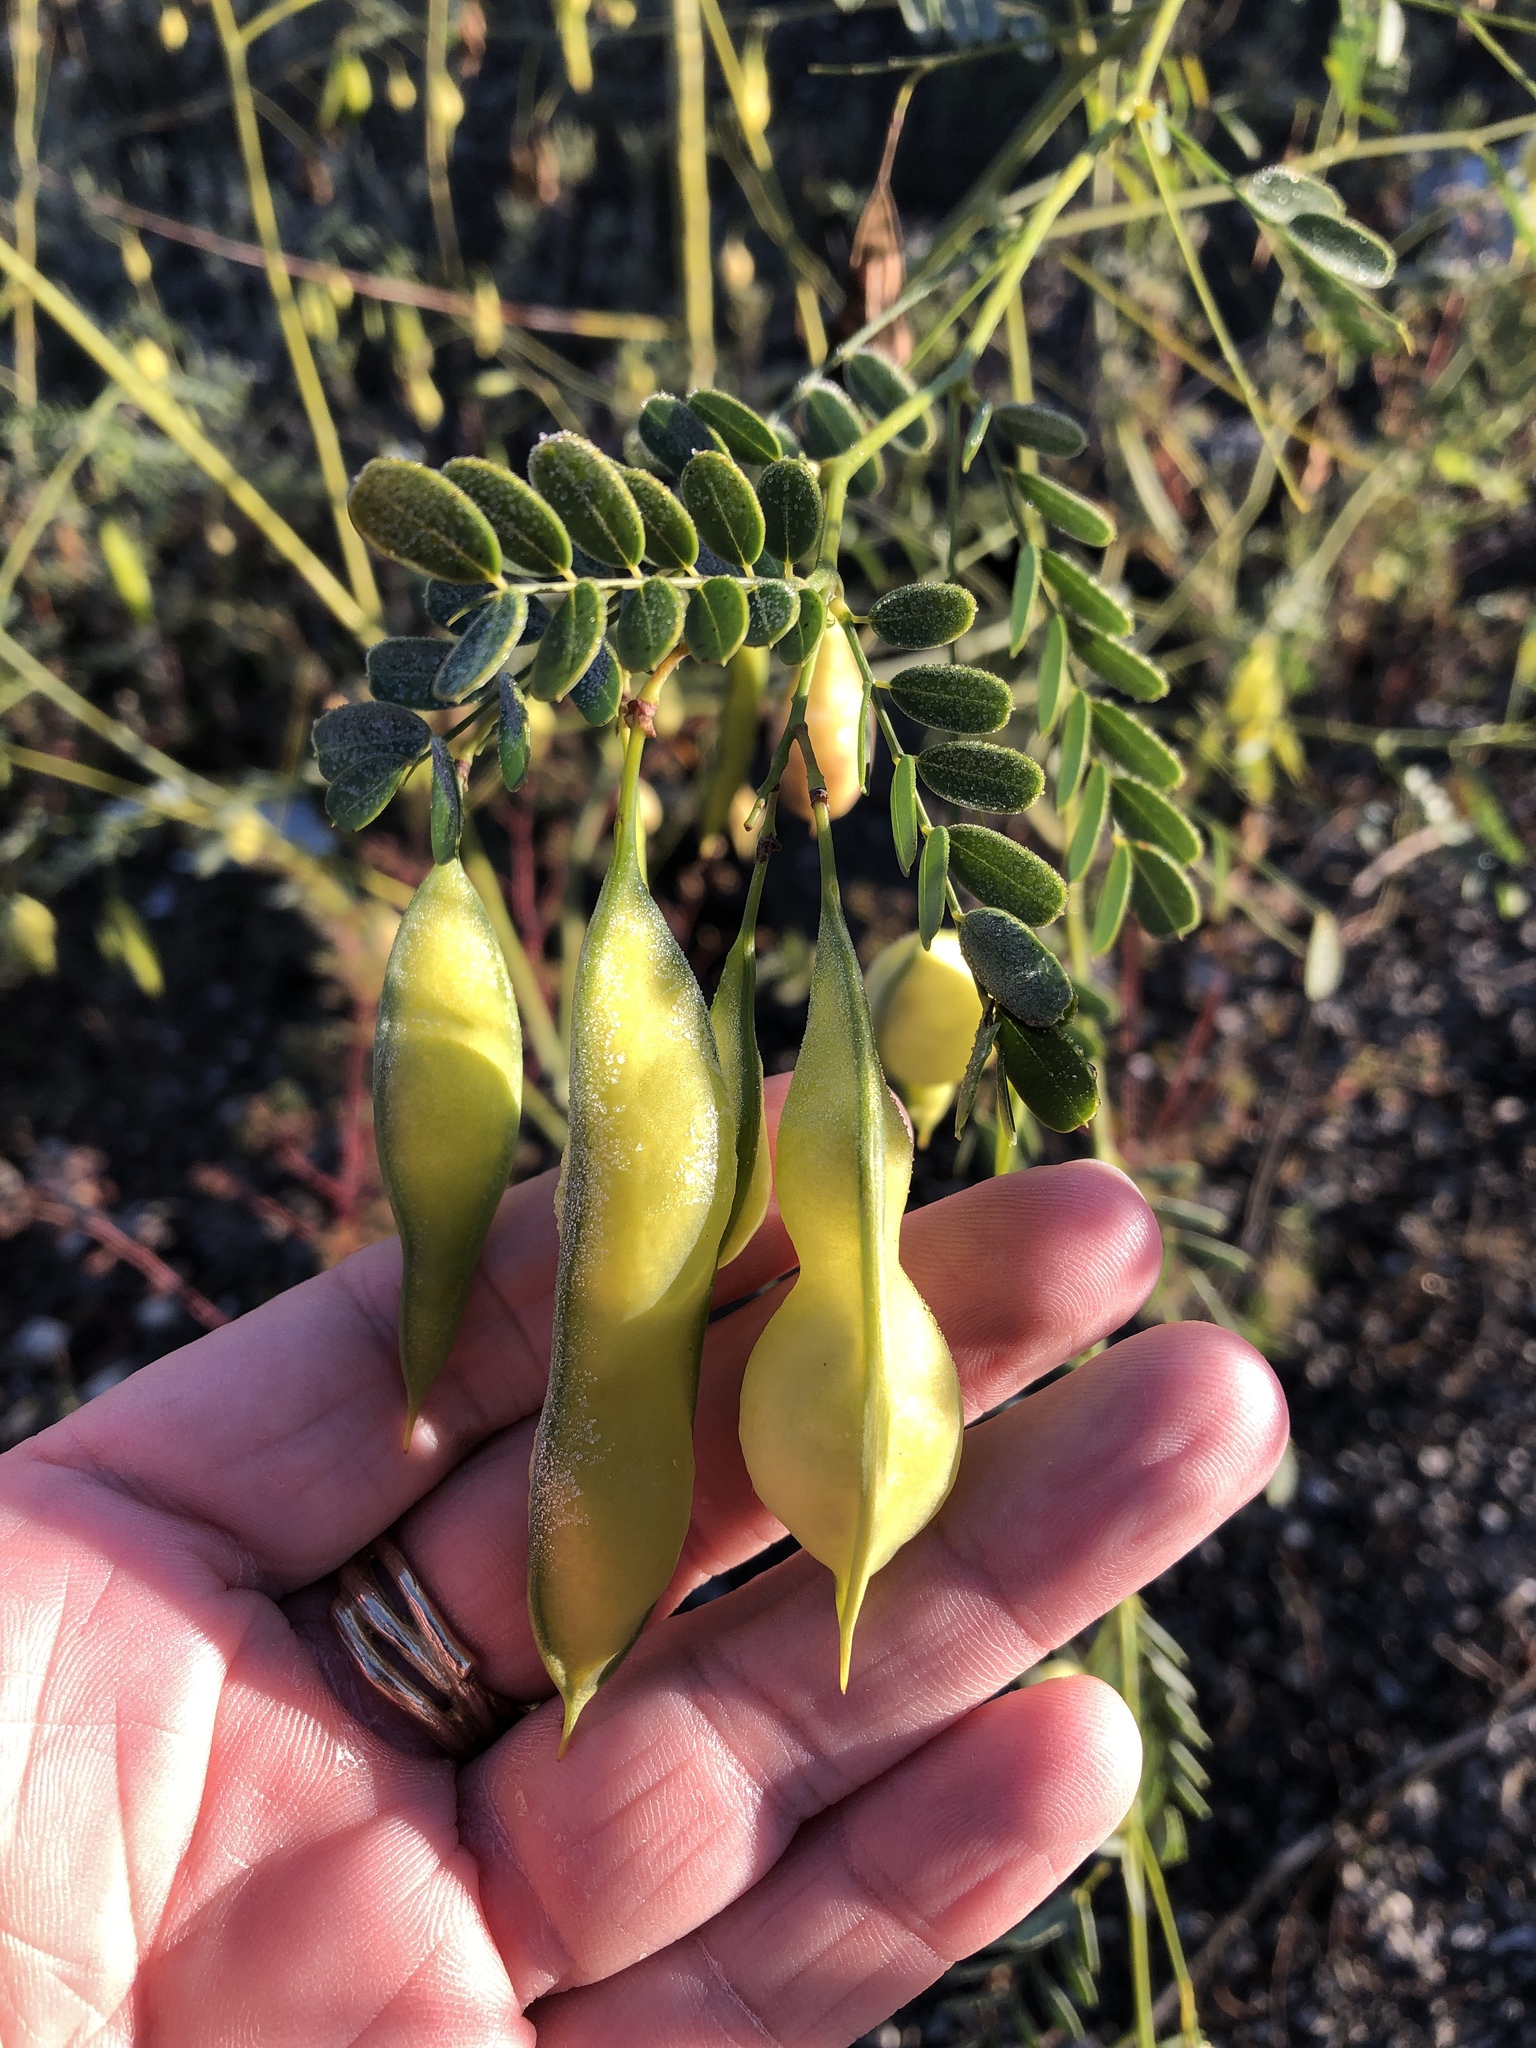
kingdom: Plantae
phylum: Tracheophyta
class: Magnoliopsida
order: Fabales
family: Fabaceae
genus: Sesbania
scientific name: Sesbania vesicaria
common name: Bagpod
